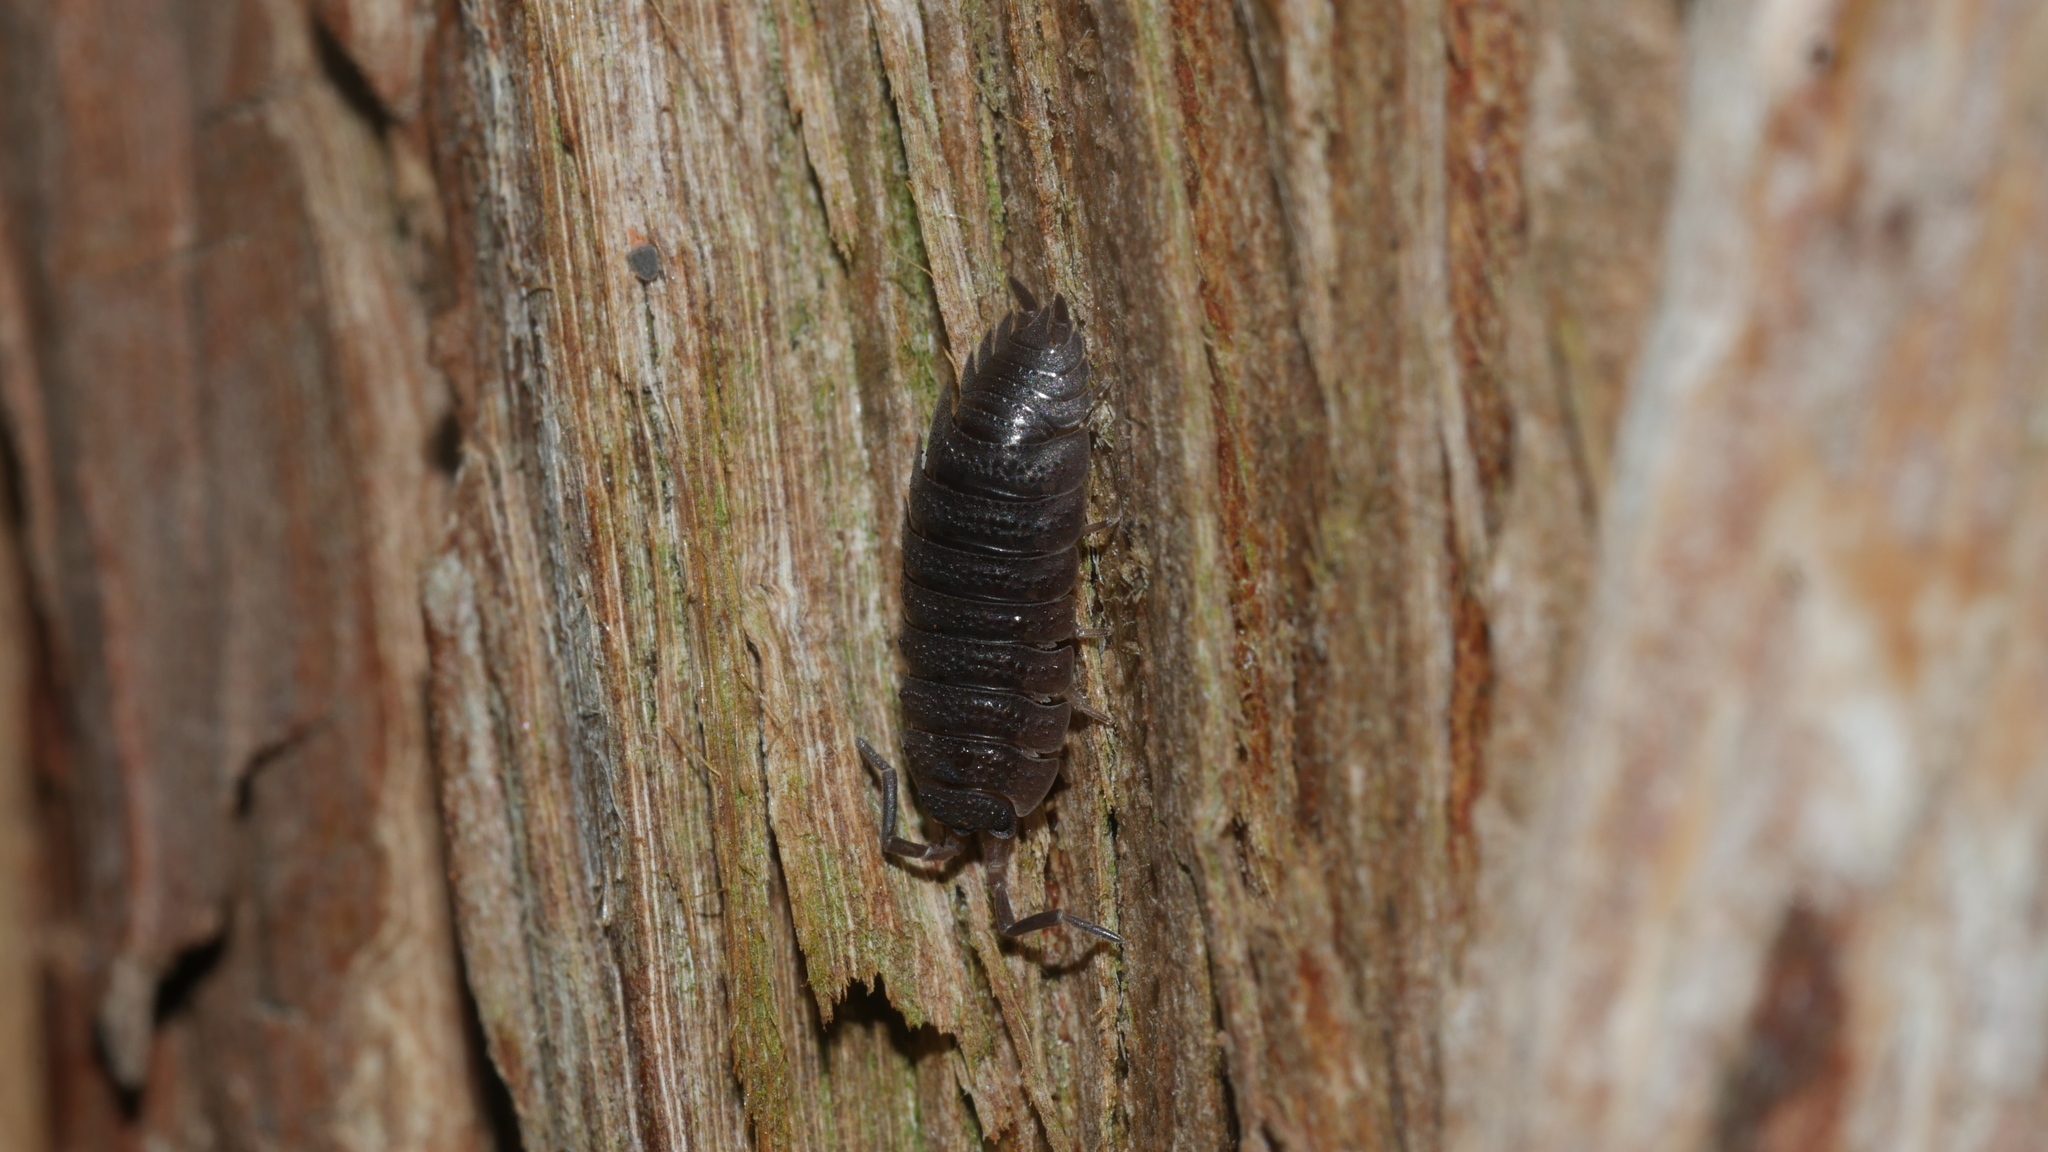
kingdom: Animalia
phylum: Arthropoda
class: Malacostraca
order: Isopoda
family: Porcellionidae
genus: Porcellio
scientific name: Porcellio scaber
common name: Common rough woodlouse
